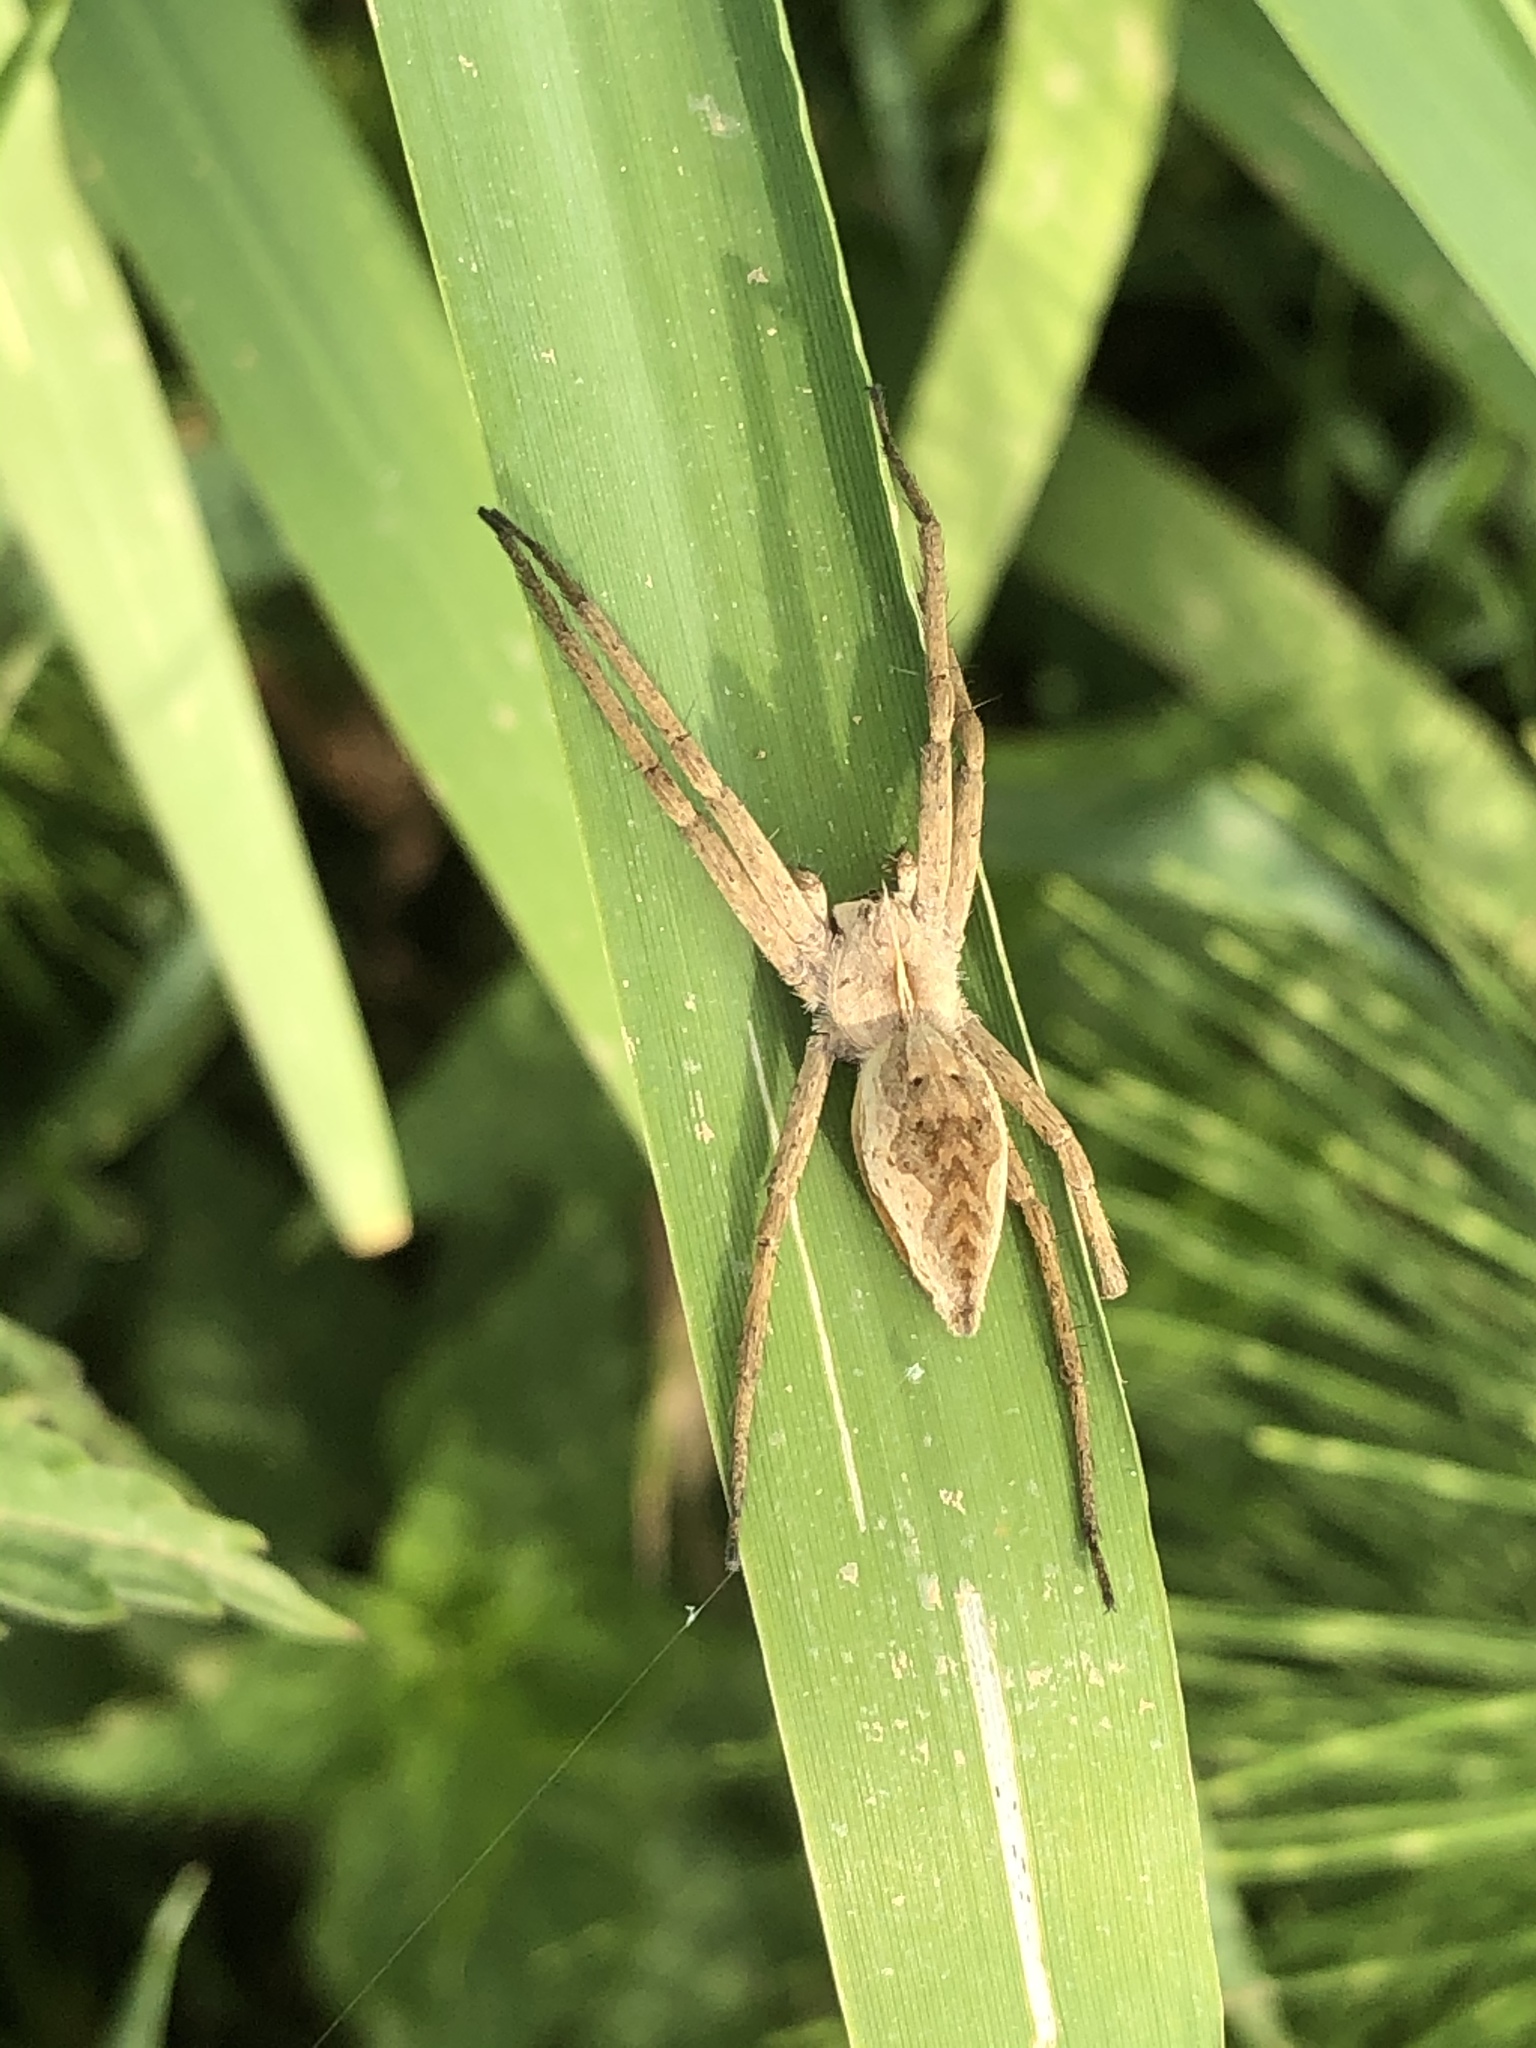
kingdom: Animalia
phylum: Arthropoda
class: Arachnida
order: Araneae
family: Pisauridae
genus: Pisaura
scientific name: Pisaura mirabilis
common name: Tent spider
